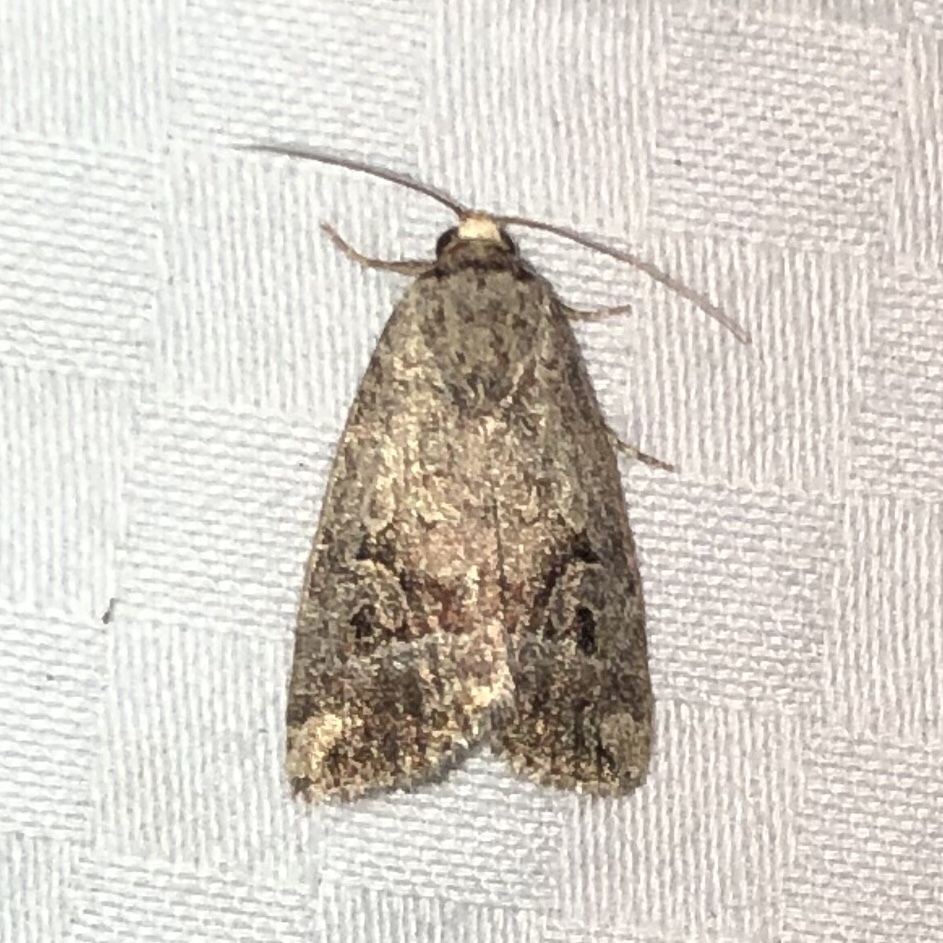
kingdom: Animalia
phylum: Arthropoda
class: Insecta
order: Lepidoptera
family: Noctuidae
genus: Elaphria
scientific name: Elaphria alapallida
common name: Pale-winged midget
